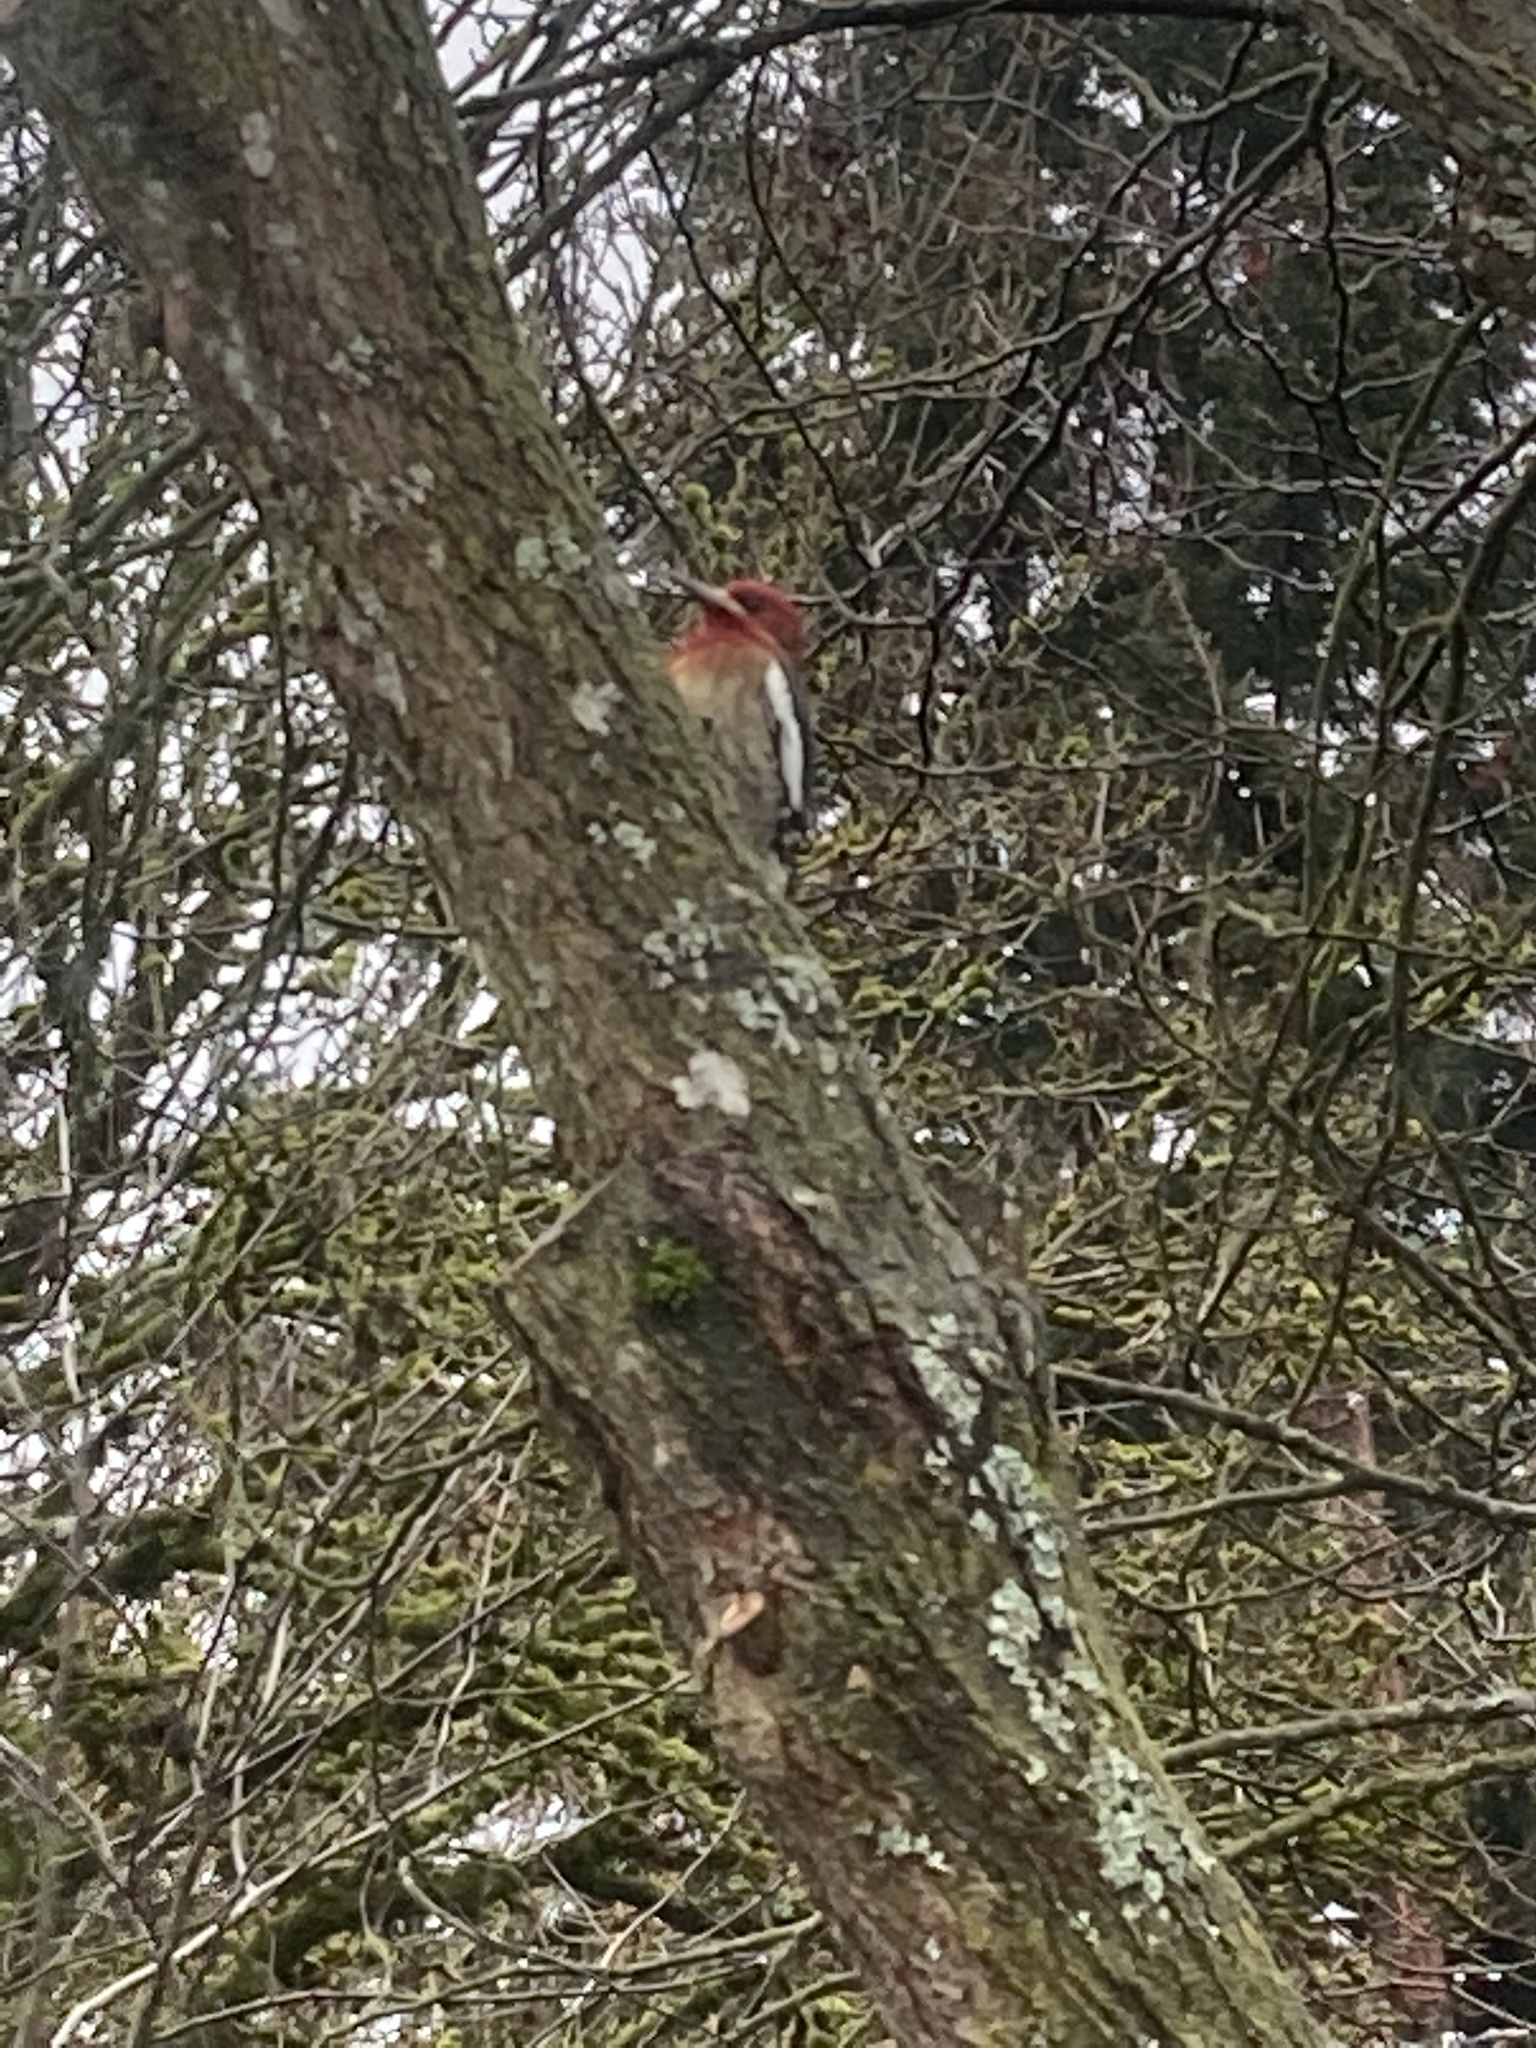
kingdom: Animalia
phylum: Chordata
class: Aves
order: Piciformes
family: Picidae
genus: Sphyrapicus
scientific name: Sphyrapicus ruber
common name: Red-breasted sapsucker
